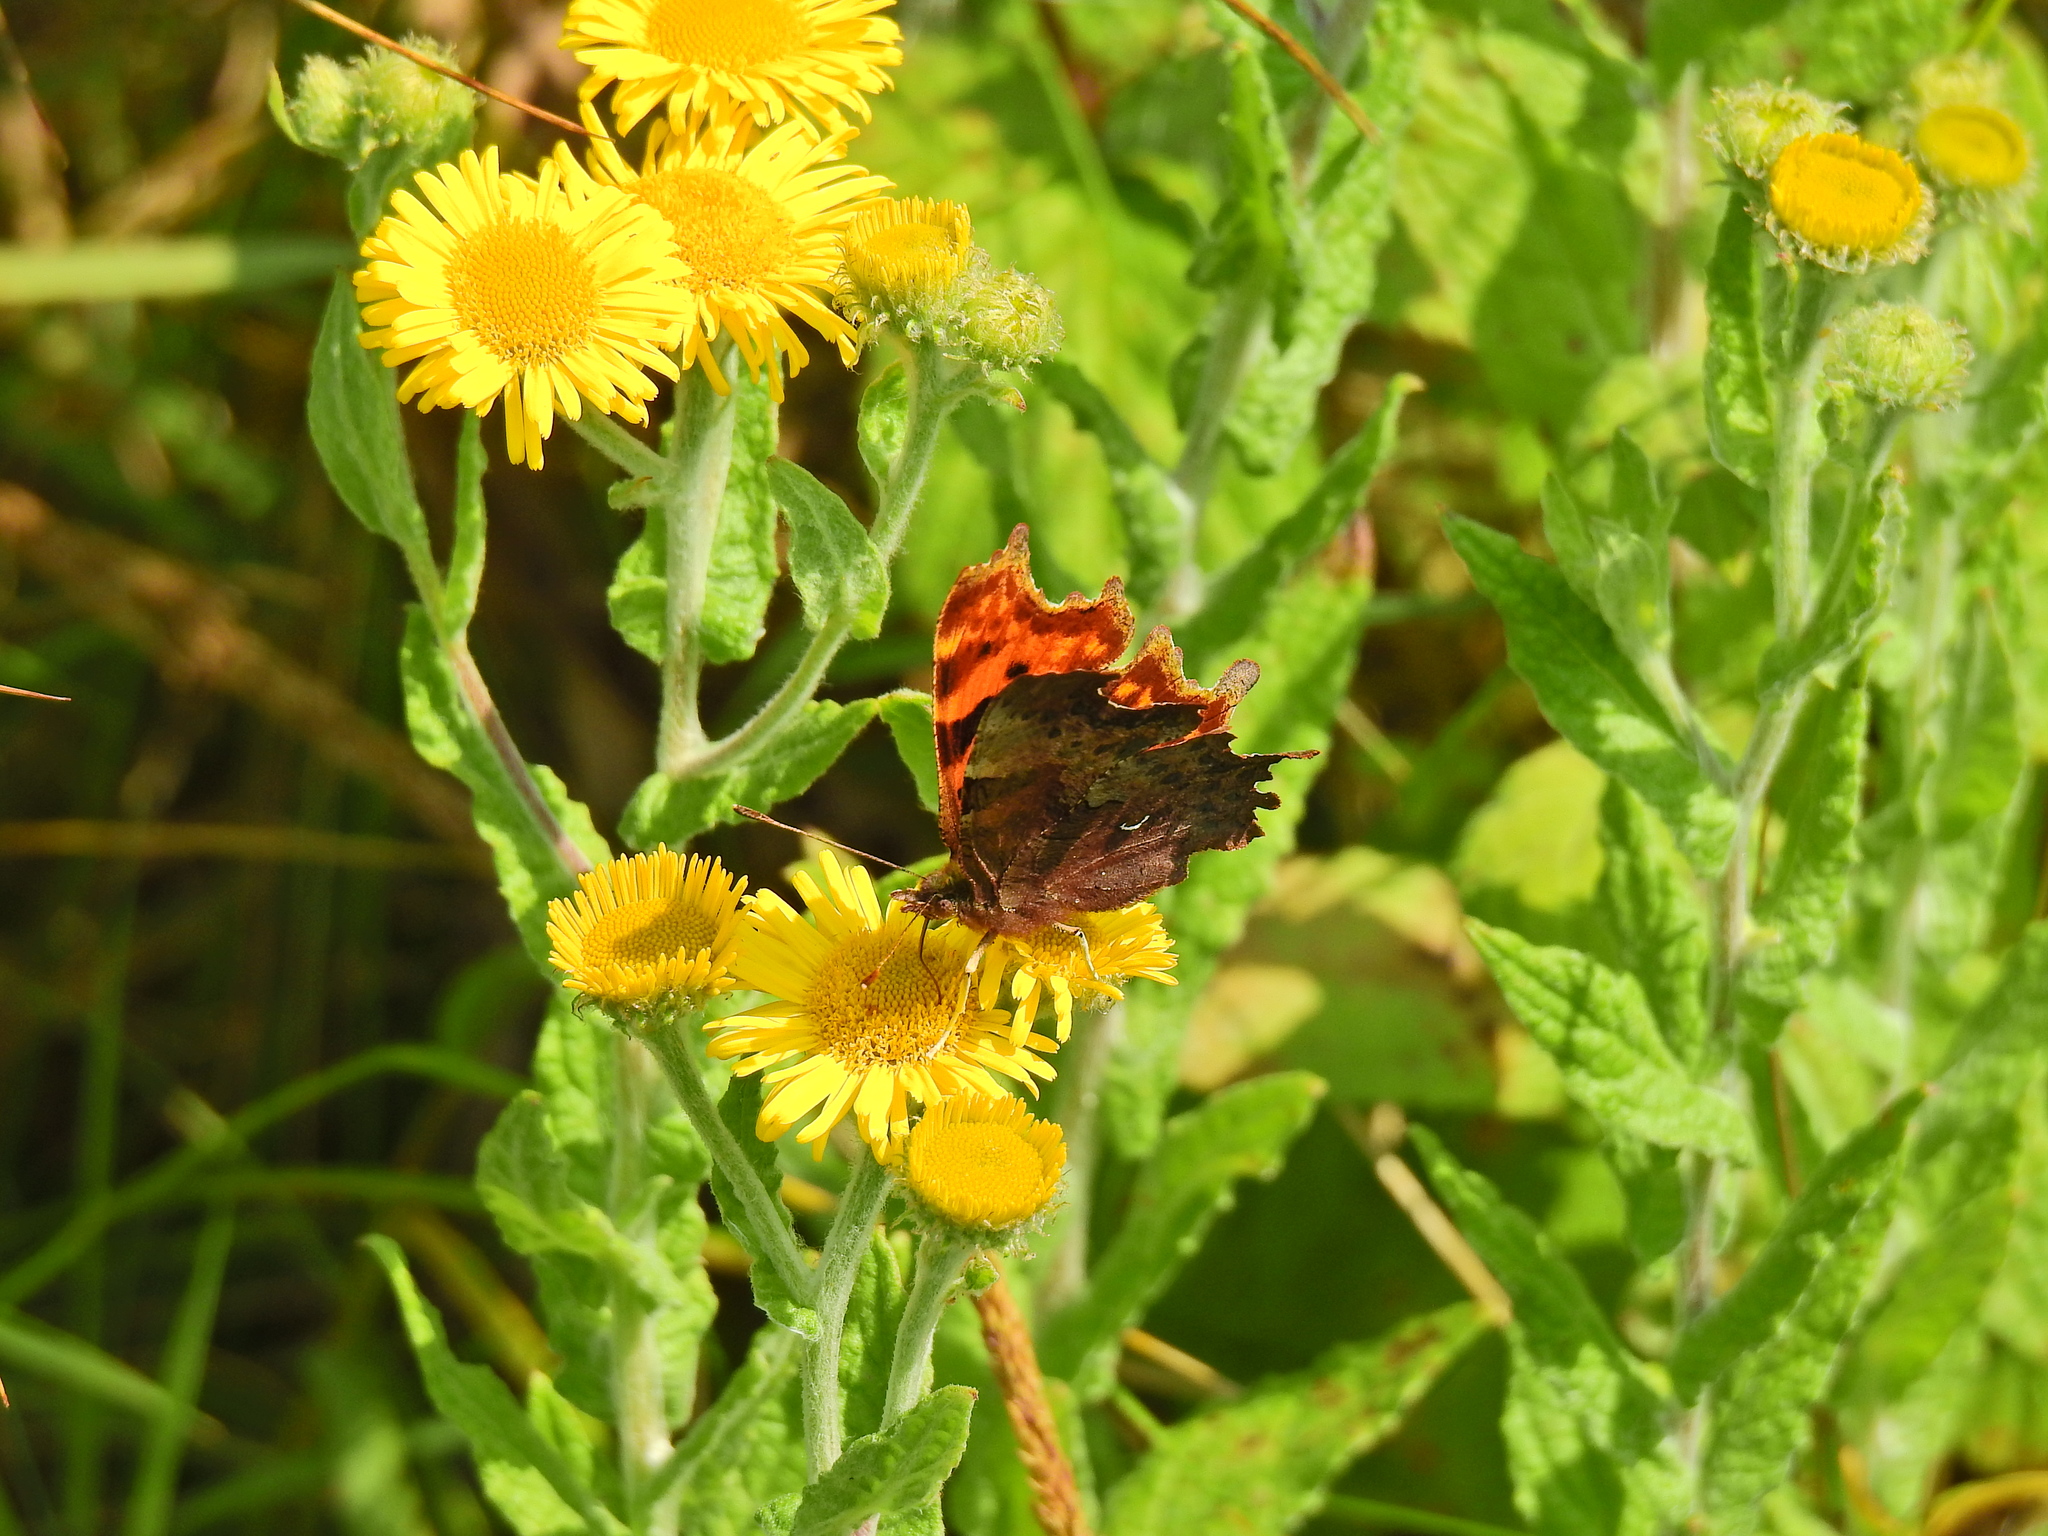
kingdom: Animalia
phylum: Arthropoda
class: Insecta
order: Lepidoptera
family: Nymphalidae
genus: Polygonia
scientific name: Polygonia c-album
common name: Comma
